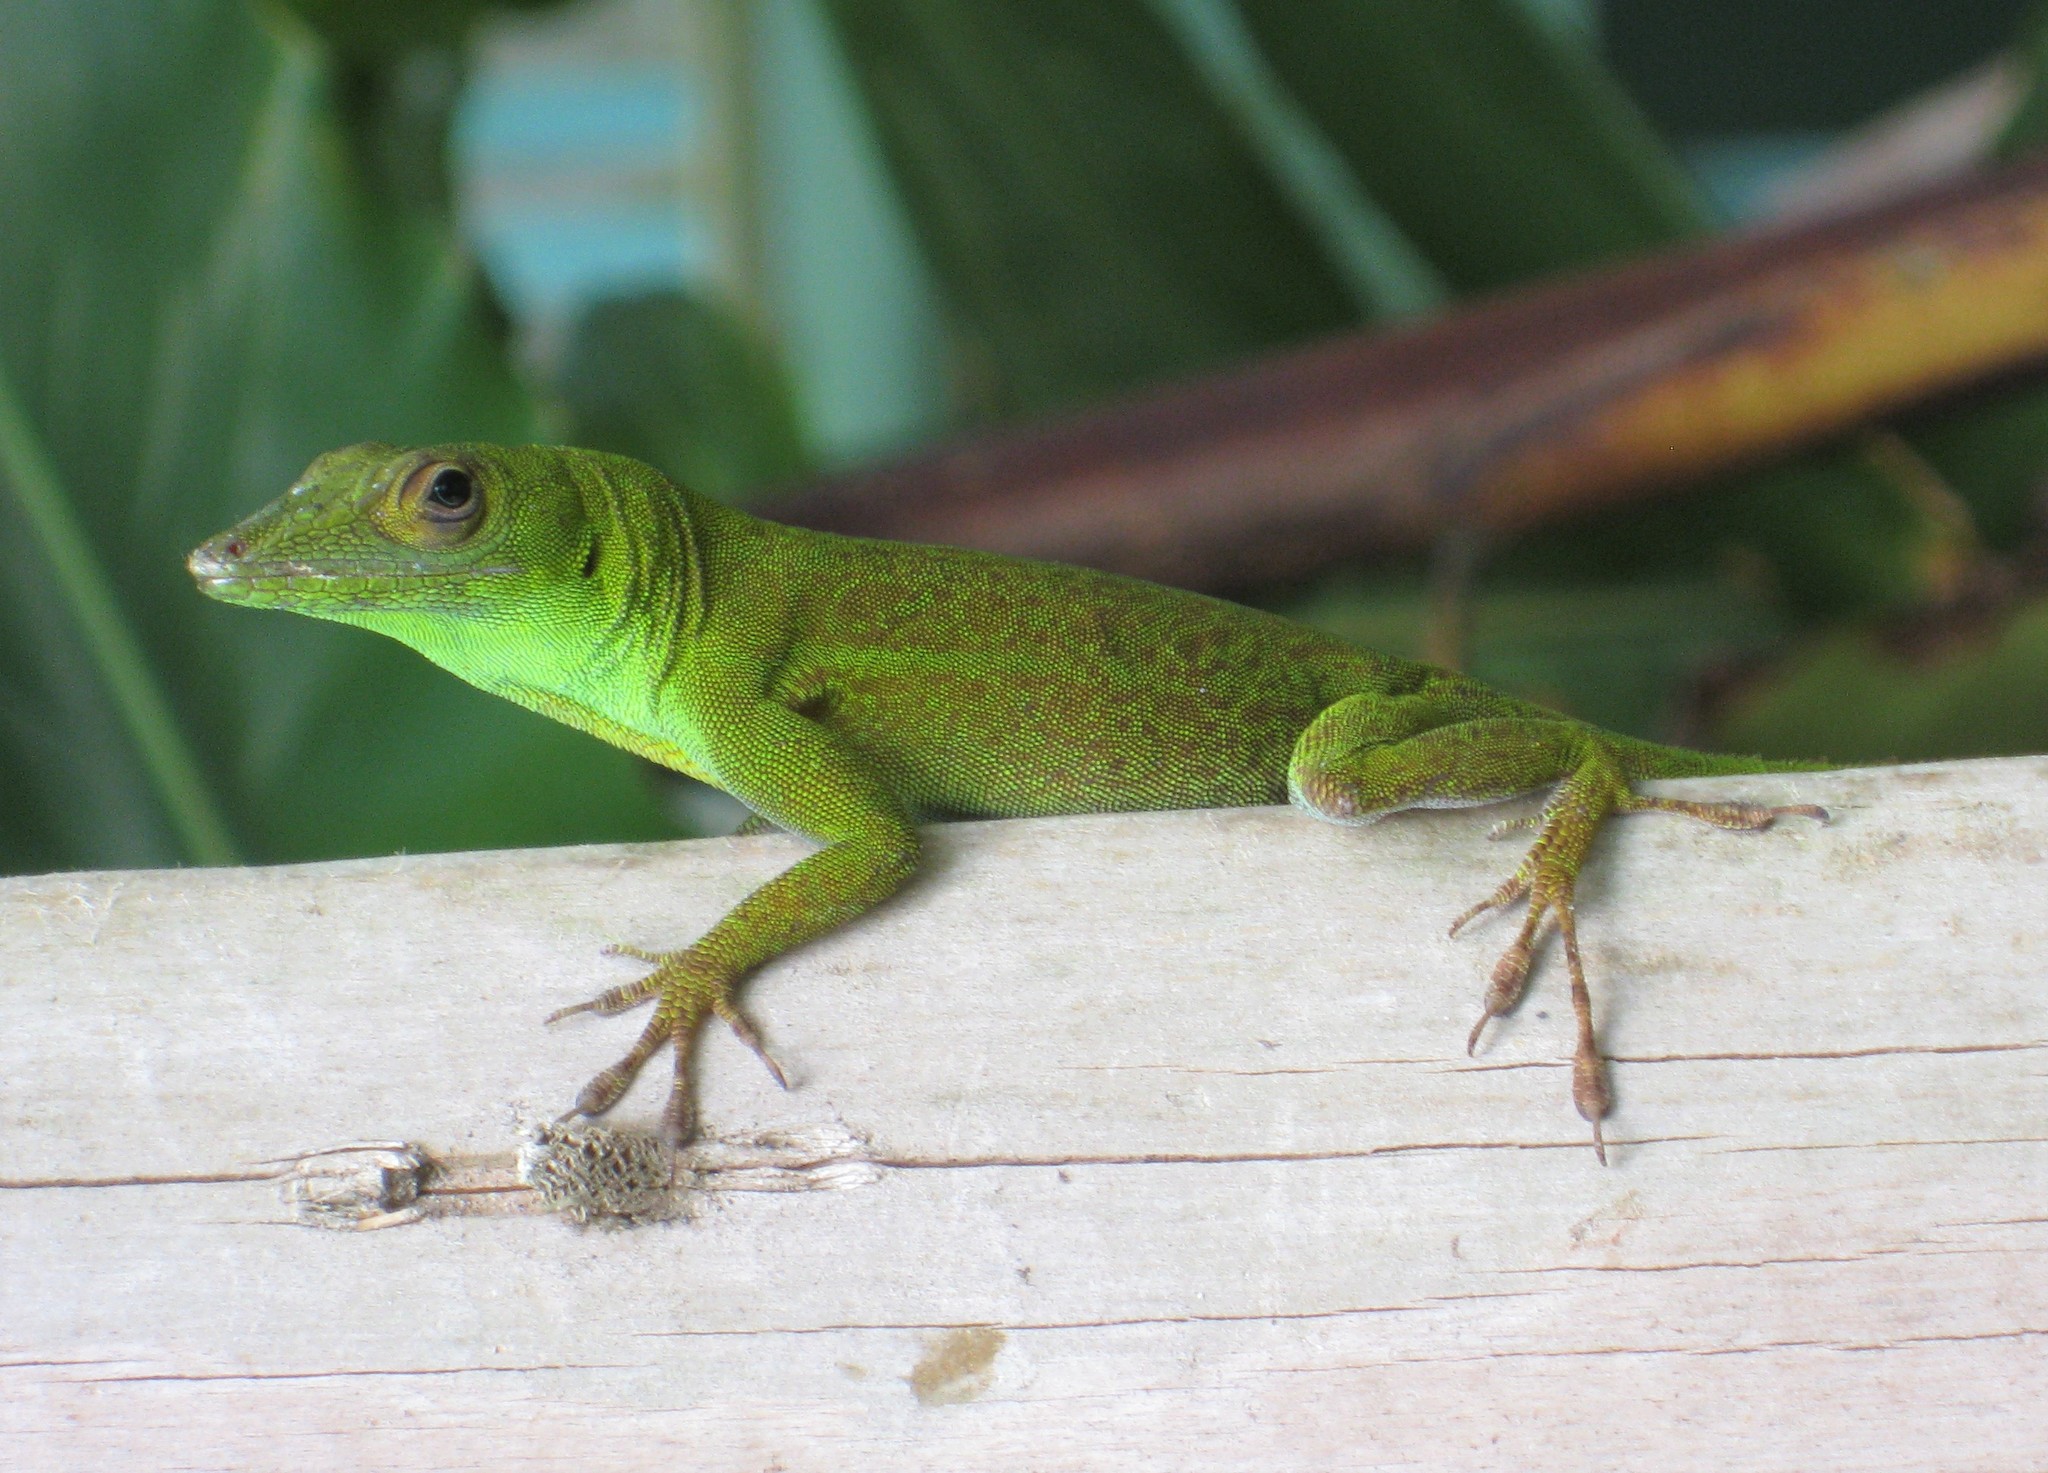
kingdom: Animalia
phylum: Chordata
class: Squamata
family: Dactyloidae
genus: Anolis
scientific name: Anolis evermanni
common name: Emerald anole
